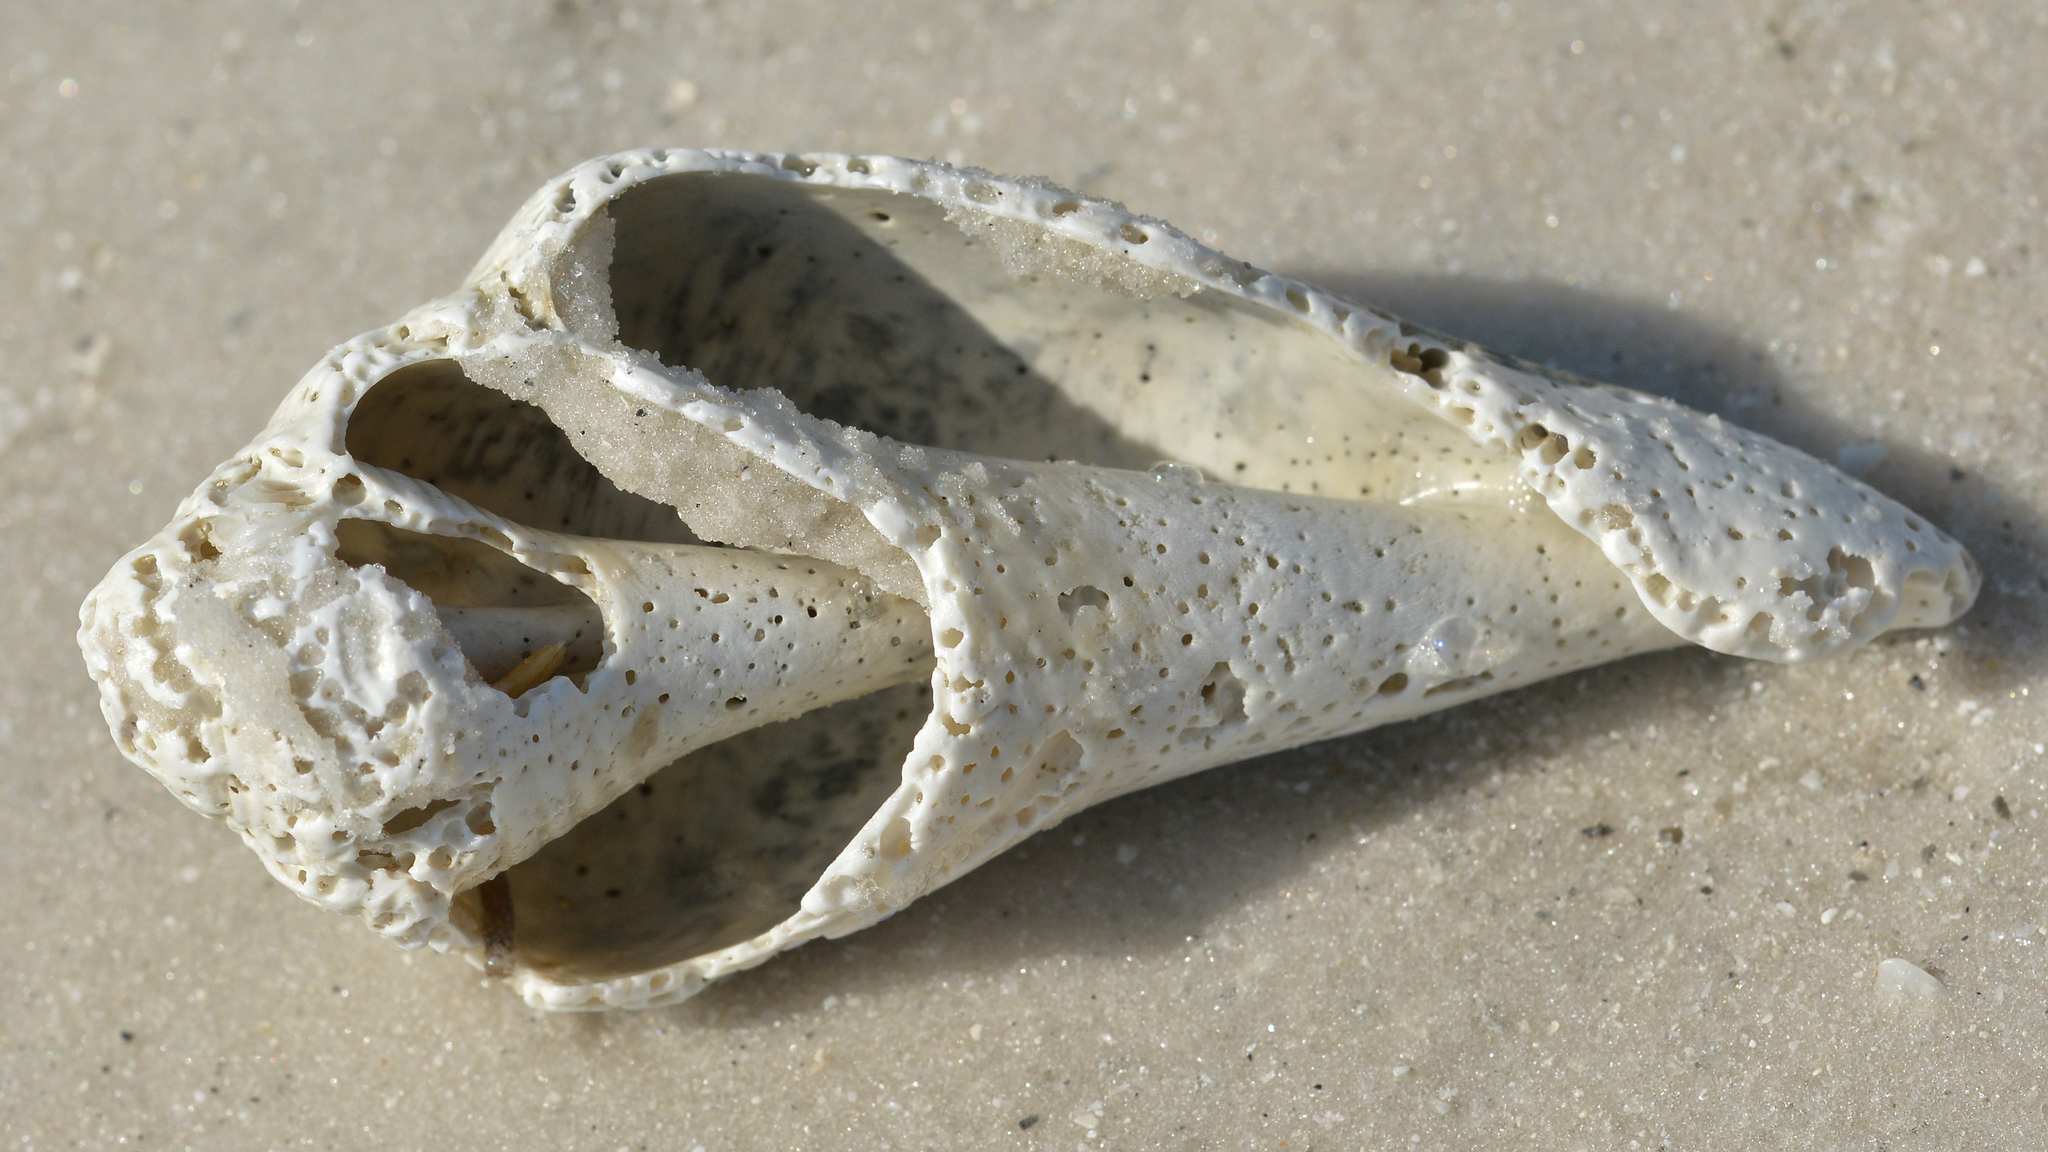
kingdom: Animalia
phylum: Mollusca
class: Gastropoda
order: Littorinimorpha
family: Strombidae
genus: Strombus
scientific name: Strombus alatus
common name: Florida fighting conch
